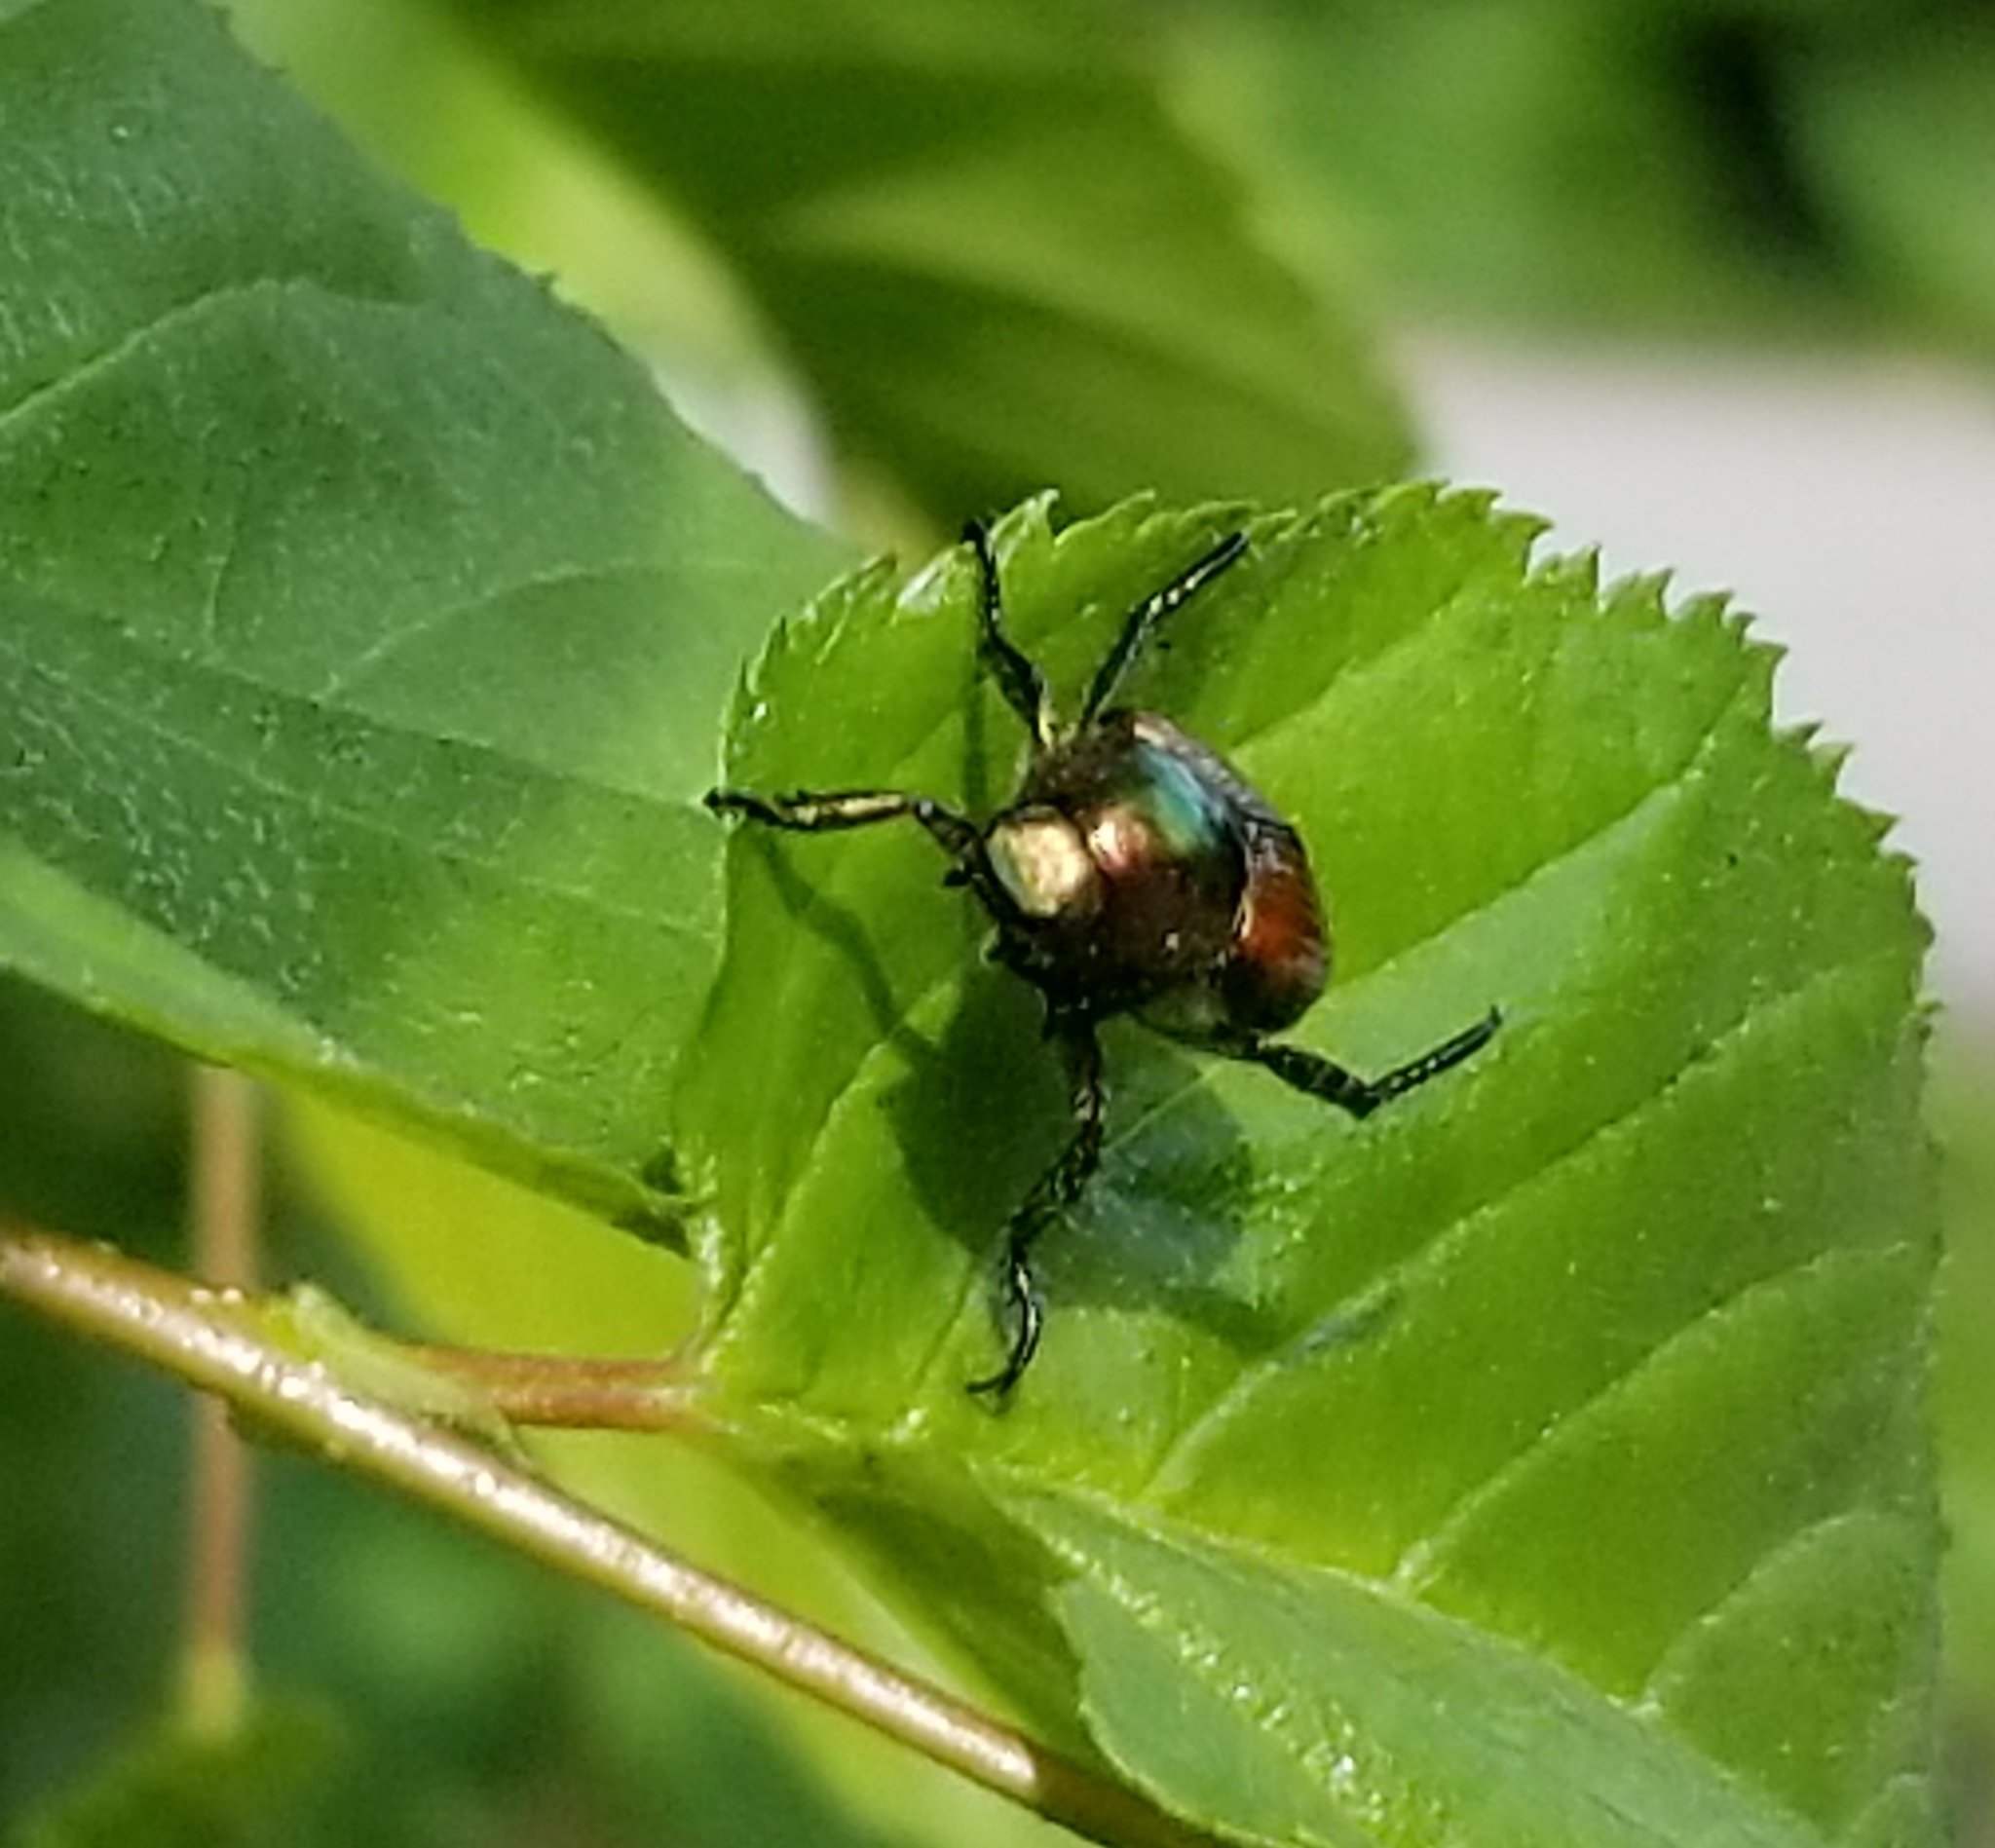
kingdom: Animalia
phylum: Arthropoda
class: Insecta
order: Coleoptera
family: Scarabaeidae
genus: Popillia
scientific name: Popillia japonica
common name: Japanese beetle
